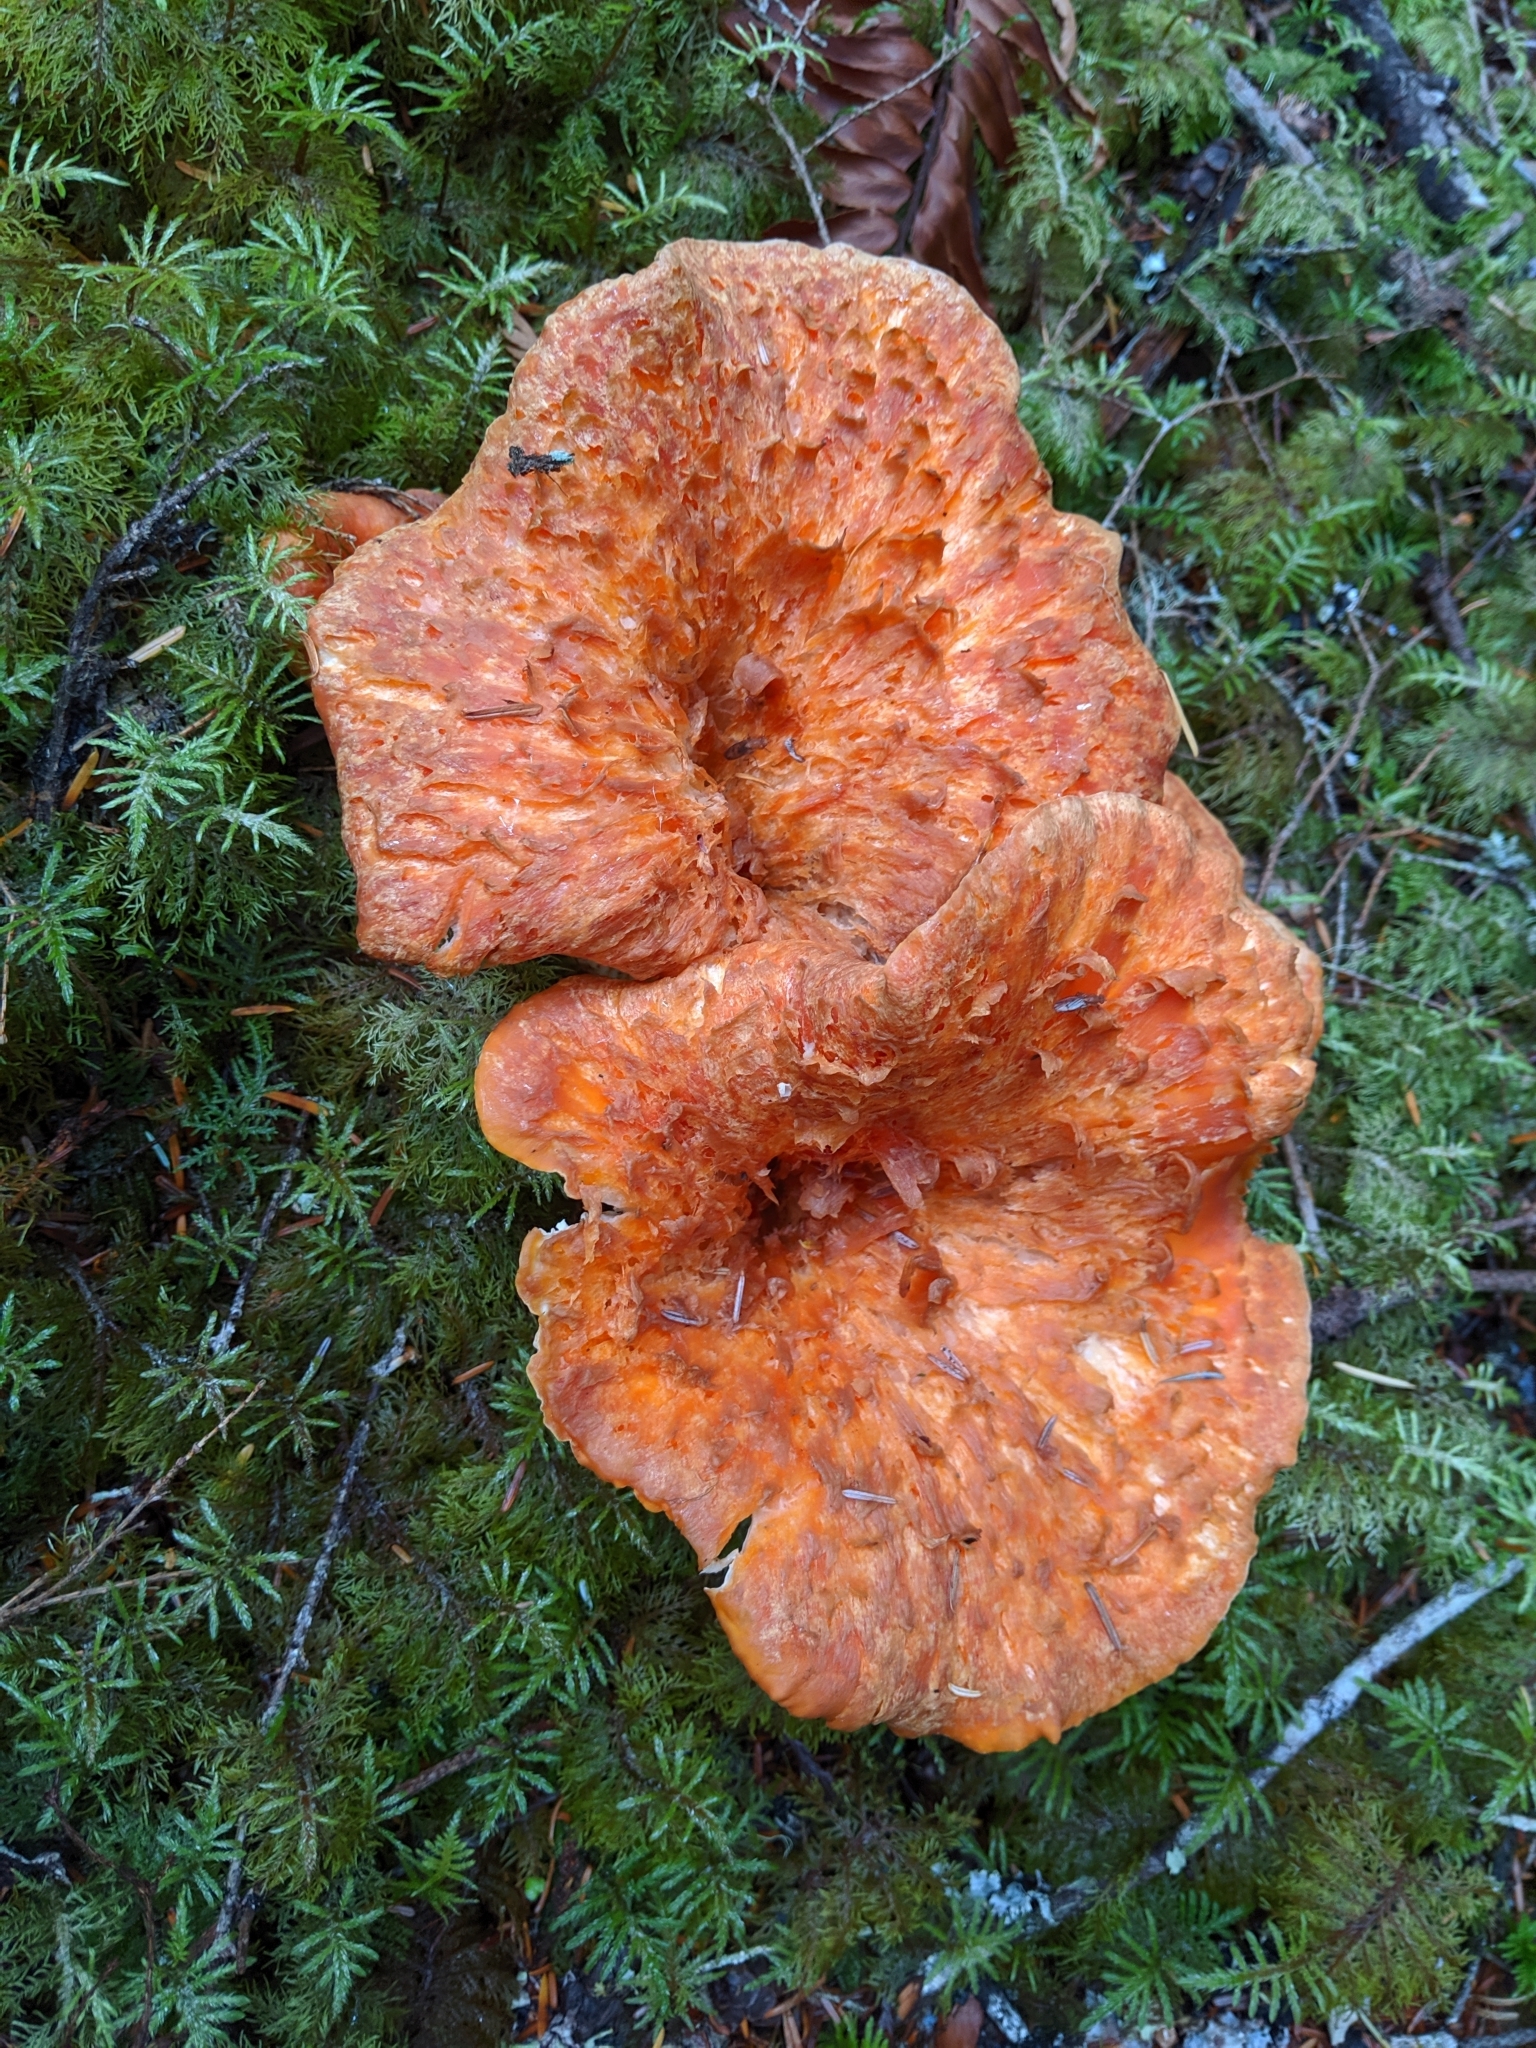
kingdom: Fungi
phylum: Basidiomycota
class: Agaricomycetes
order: Gomphales
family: Gomphaceae
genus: Turbinellus
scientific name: Turbinellus floccosus
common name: Scaly chanterelle
